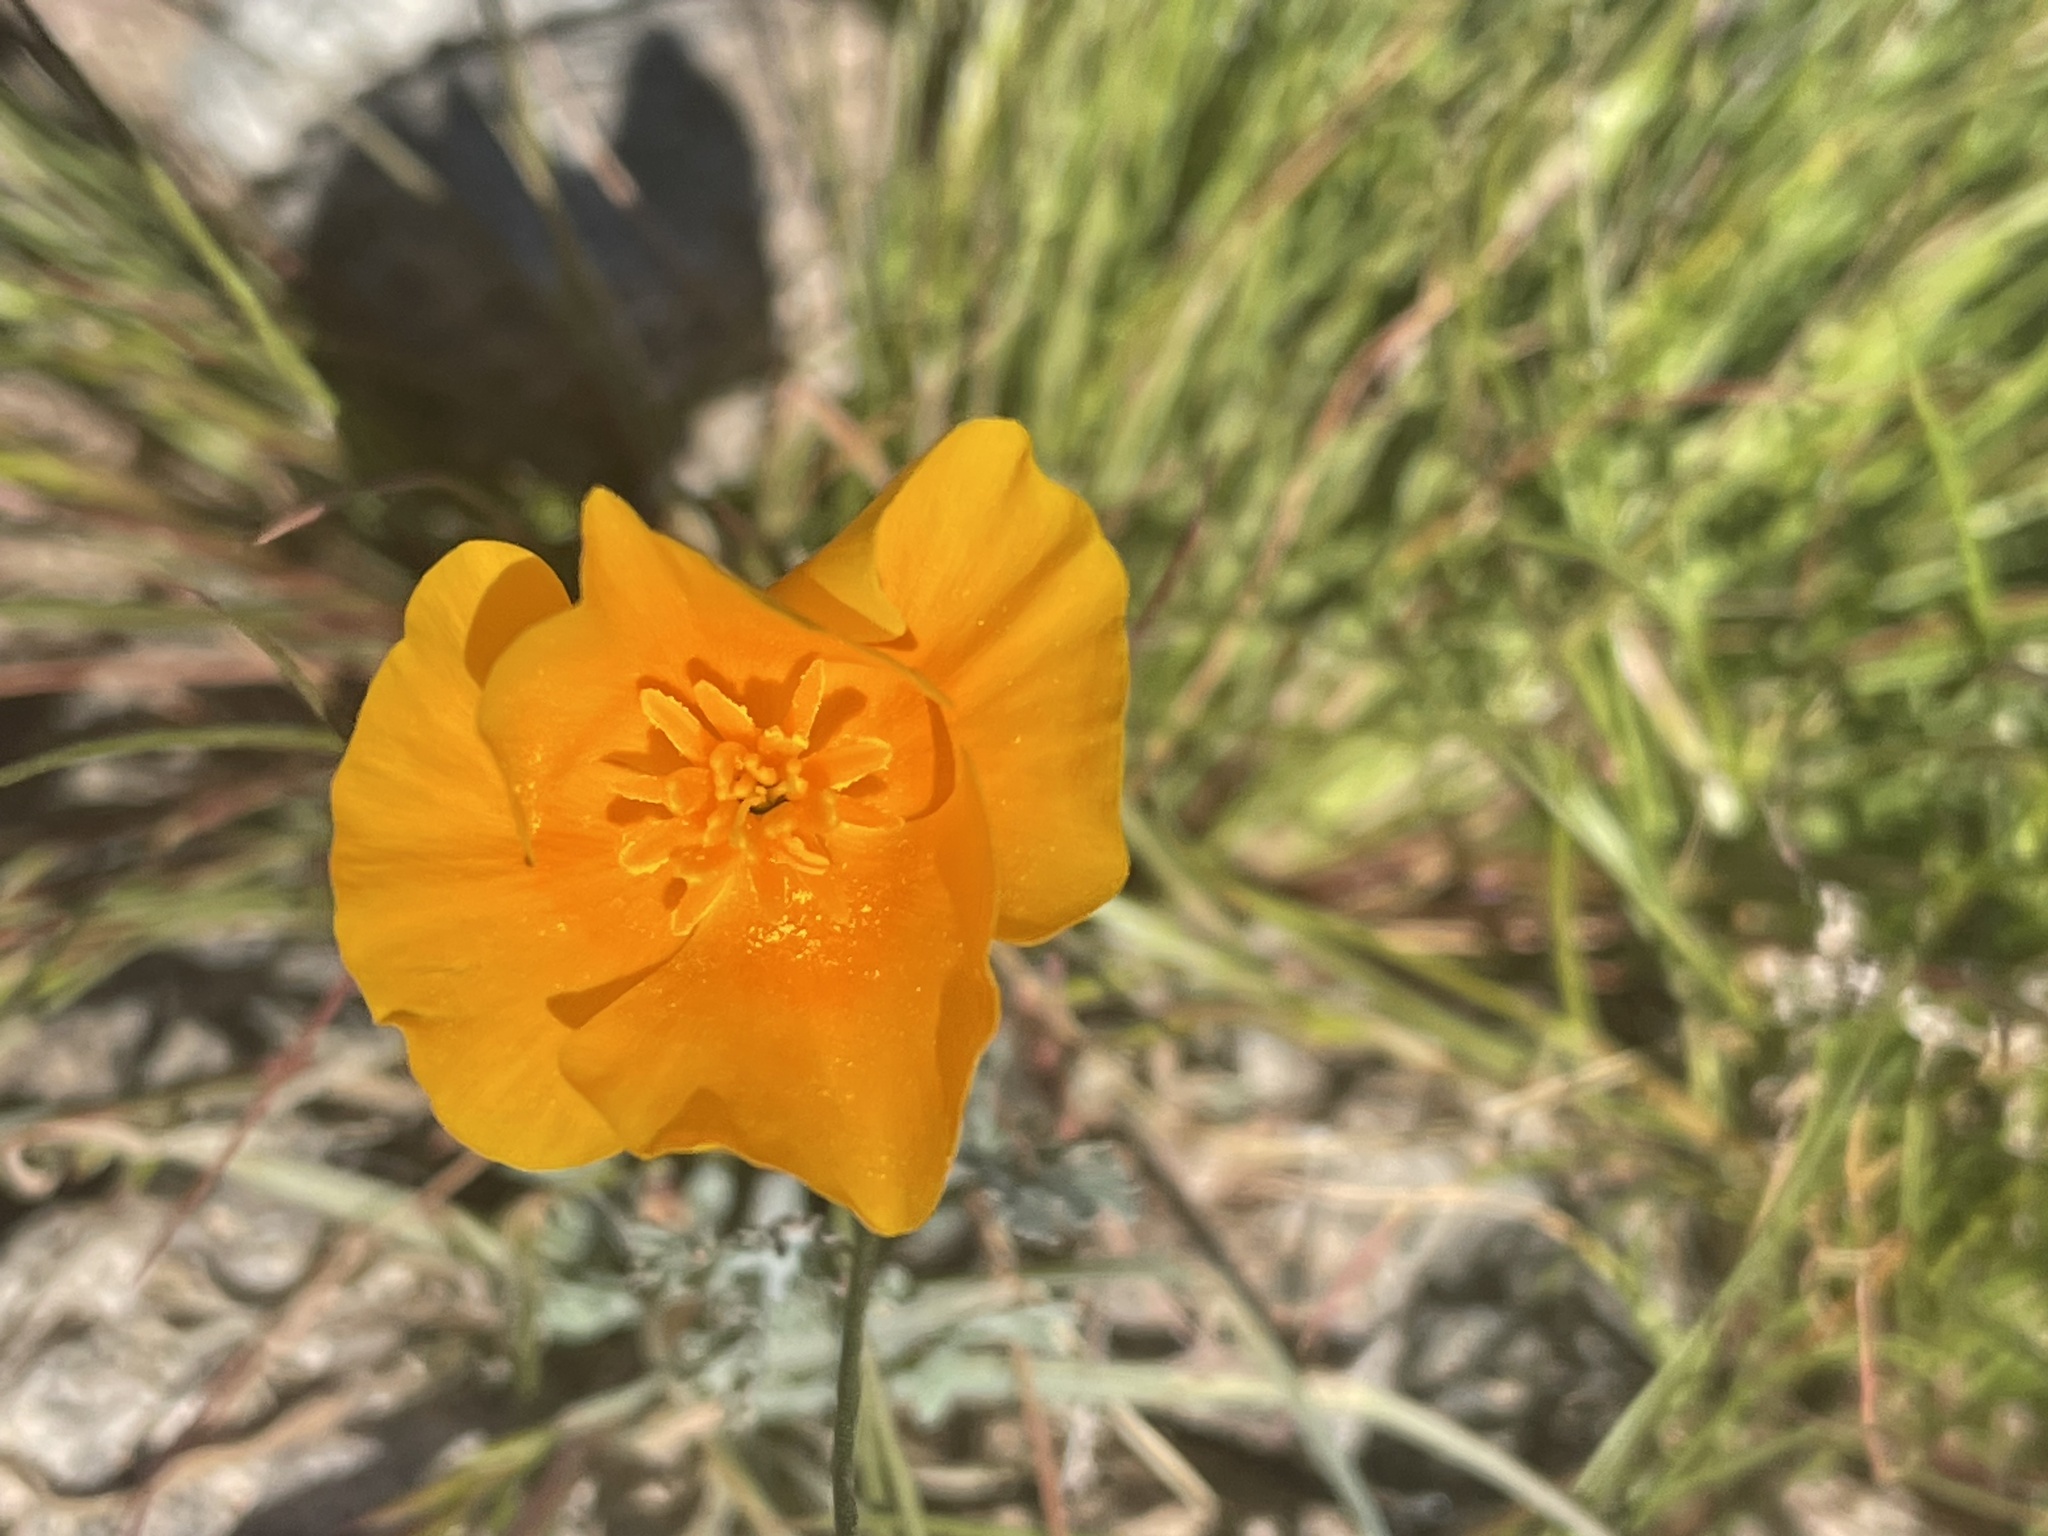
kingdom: Plantae
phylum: Tracheophyta
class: Magnoliopsida
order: Ranunculales
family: Papaveraceae
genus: Eschscholzia
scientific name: Eschscholzia californica
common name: California poppy
